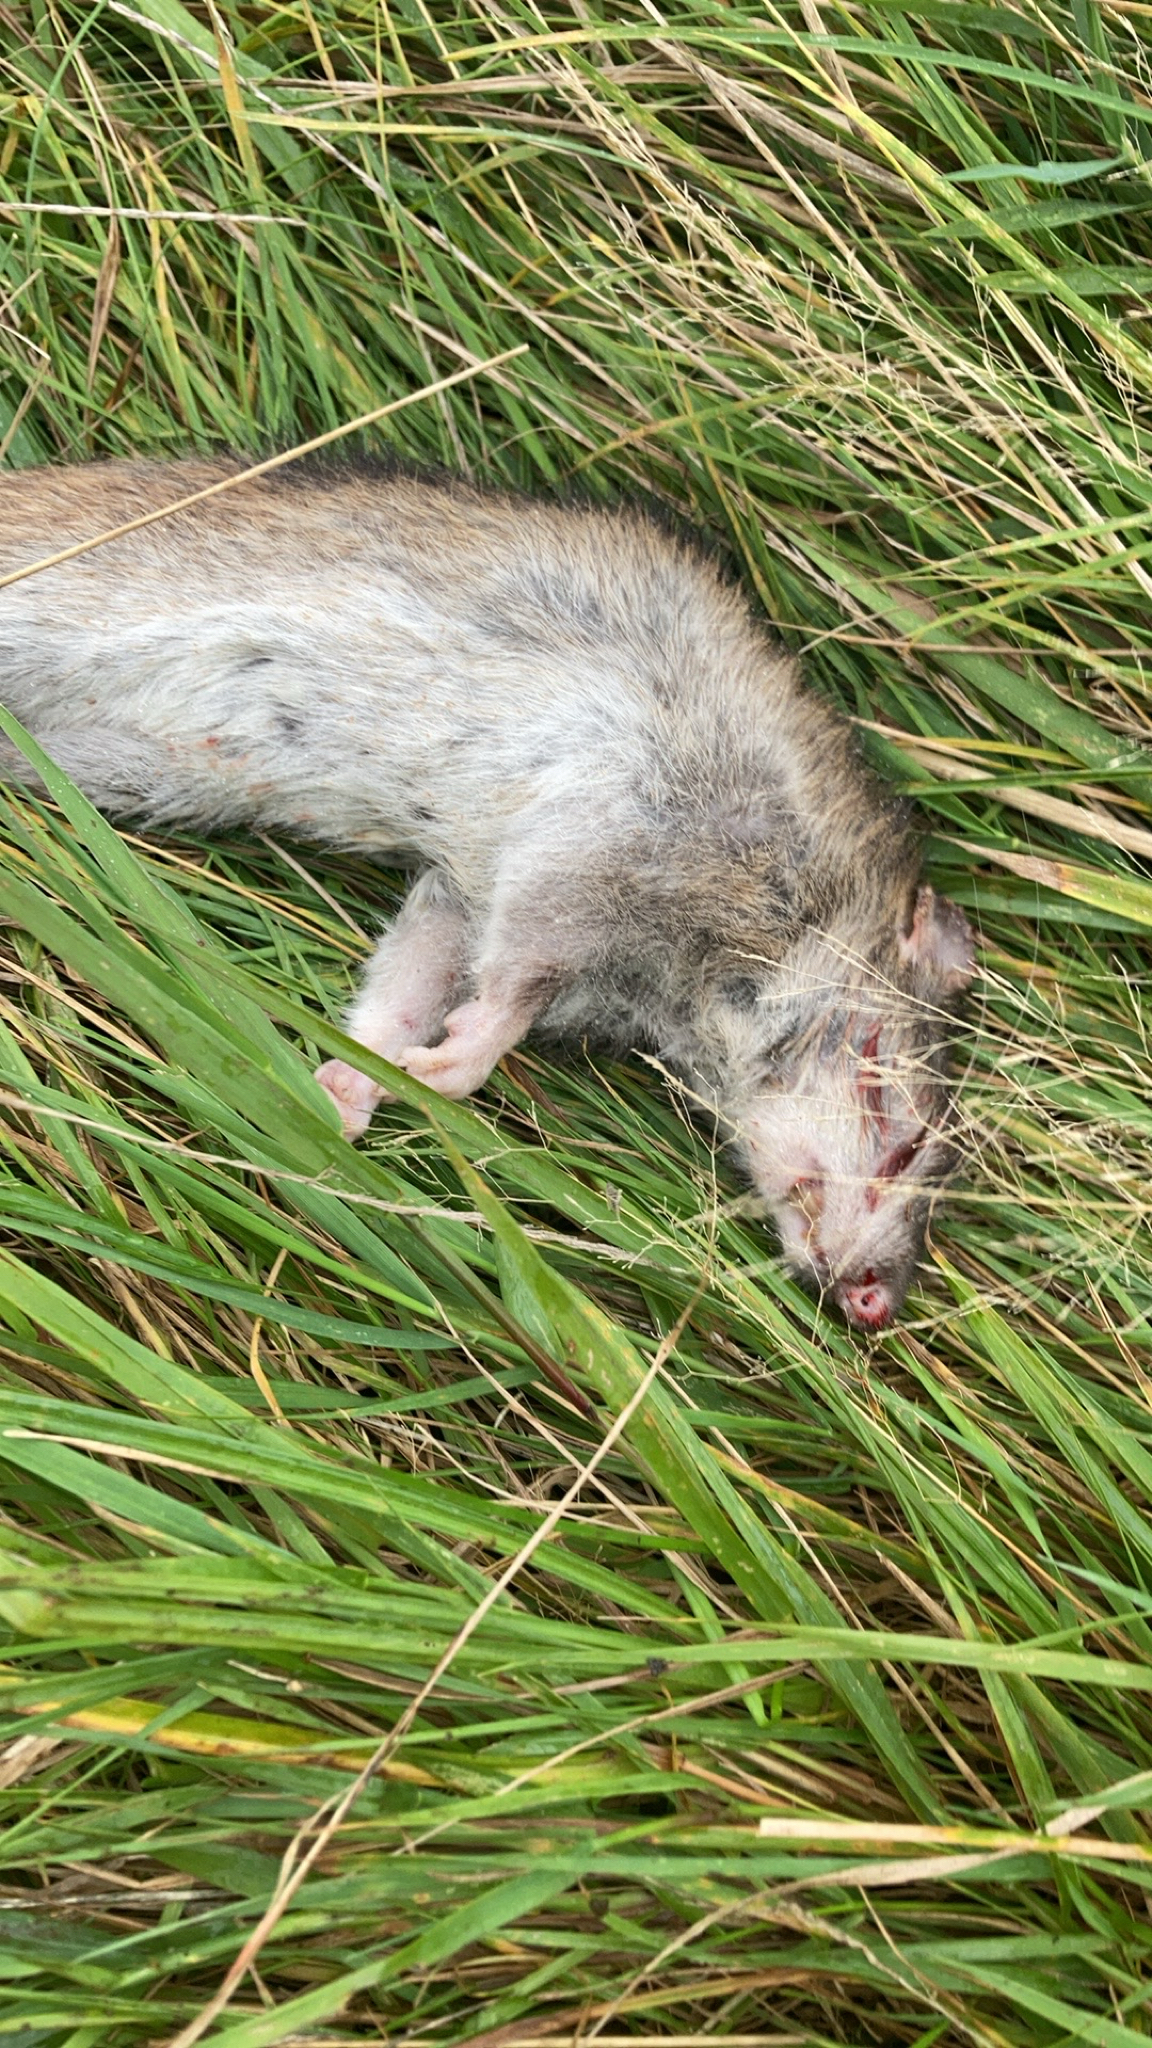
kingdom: Animalia
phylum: Chordata
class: Mammalia
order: Rodentia
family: Muridae
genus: Rattus
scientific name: Rattus norvegicus
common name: Brown rat
